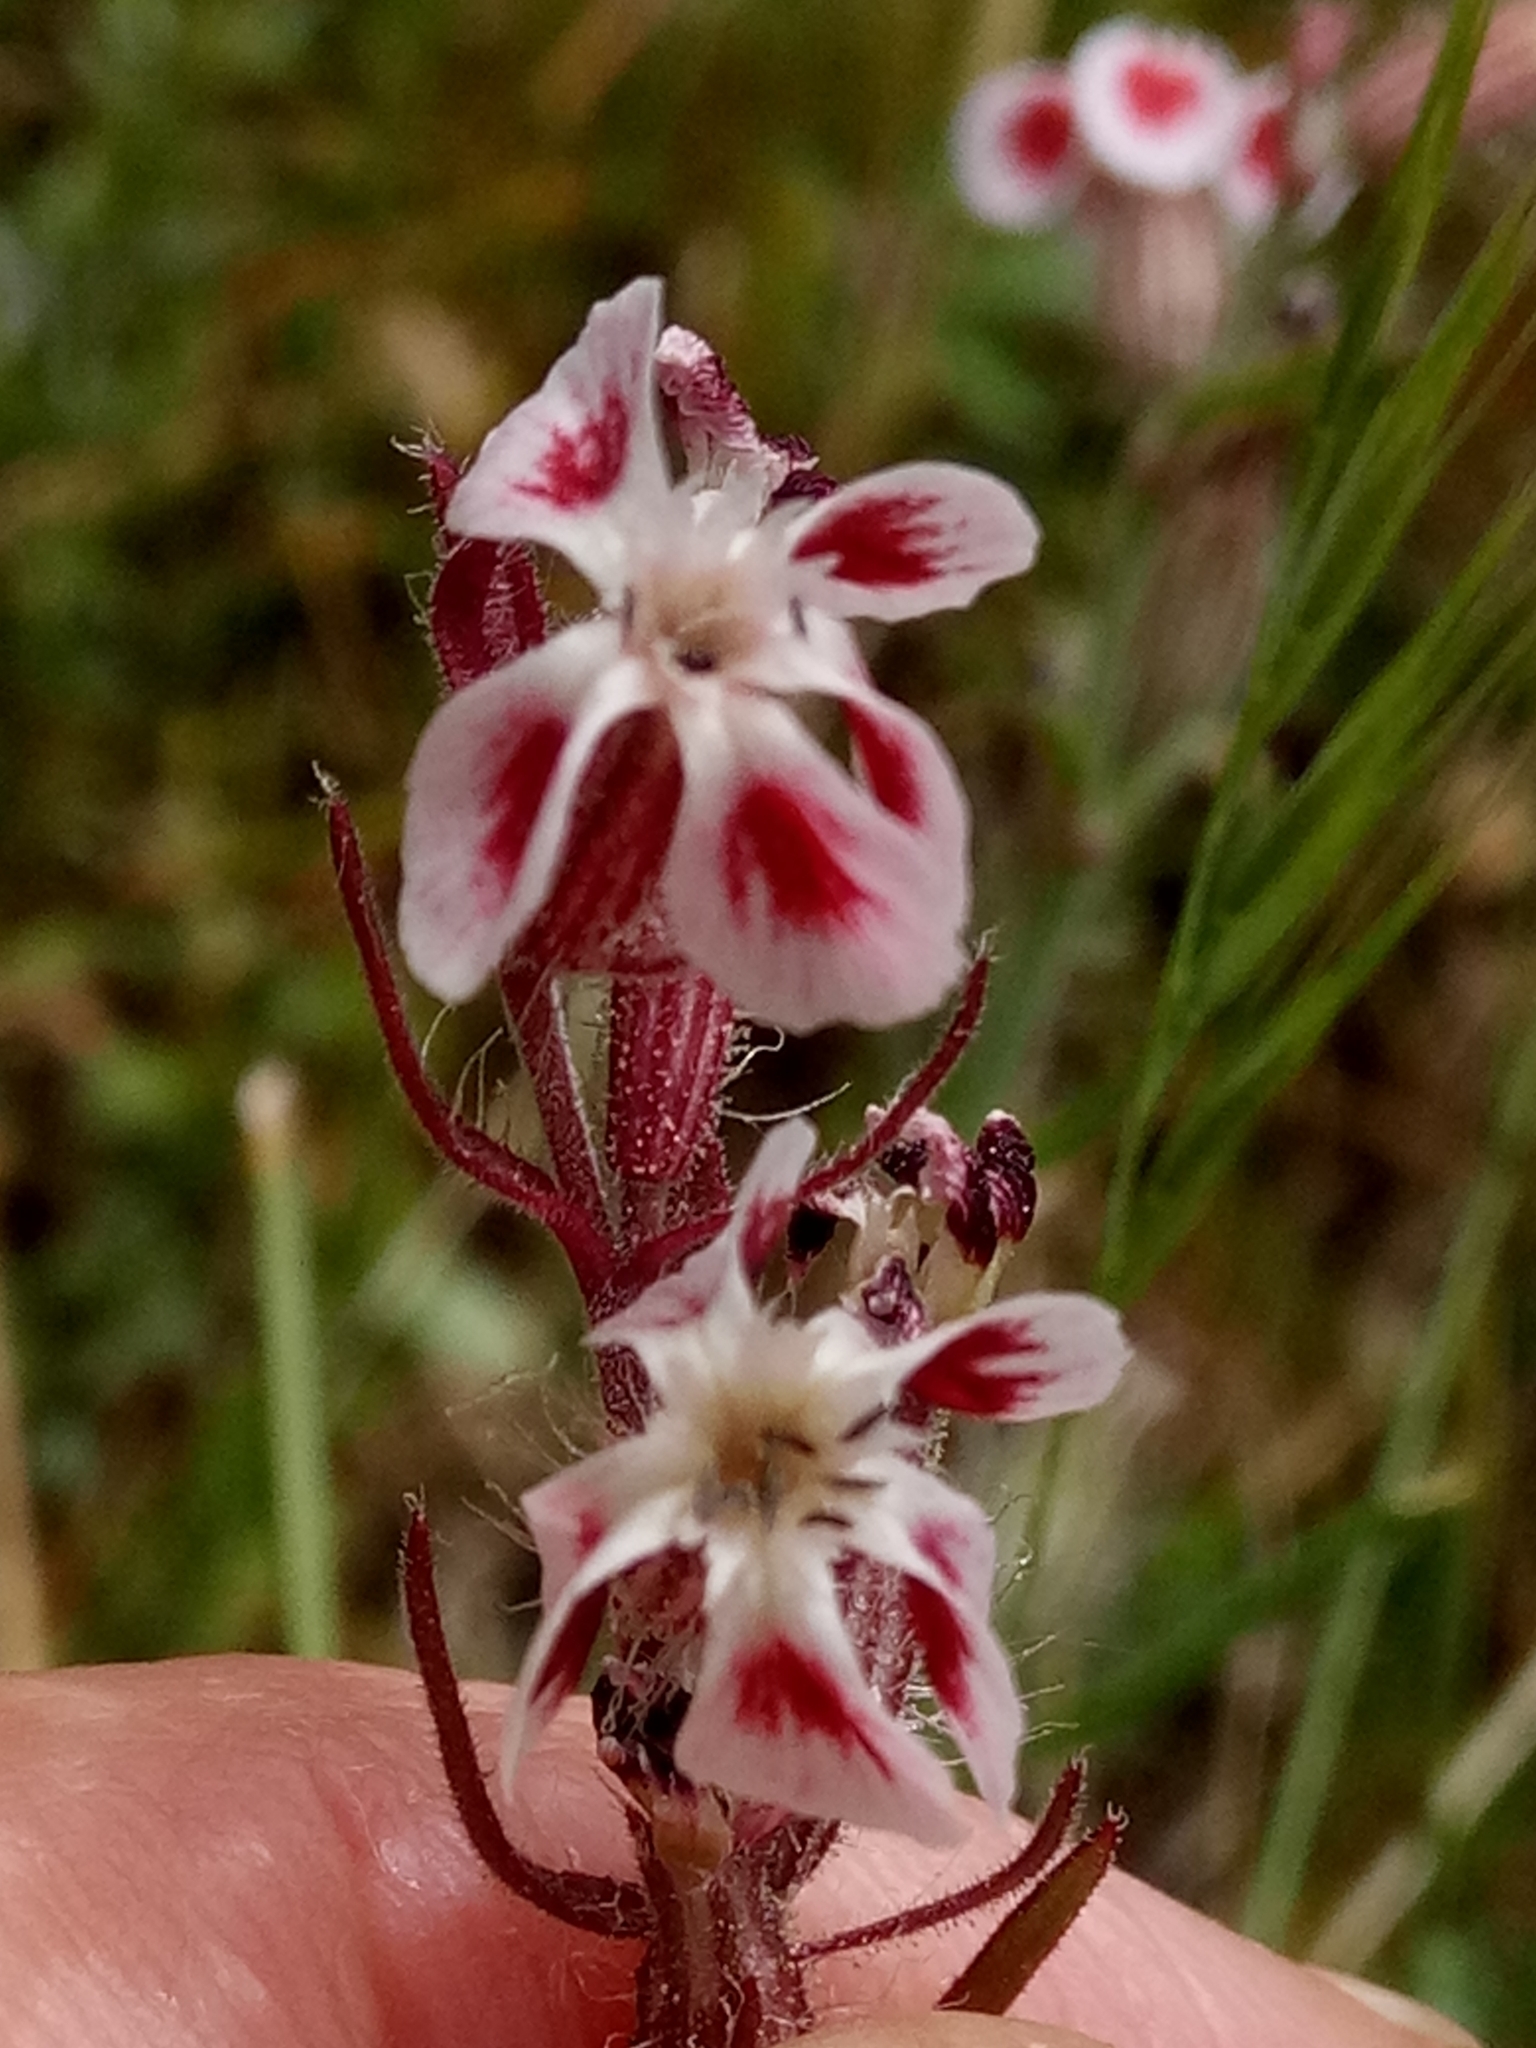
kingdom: Plantae
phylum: Tracheophyta
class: Magnoliopsida
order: Caryophyllales
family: Caryophyllaceae
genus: Silene
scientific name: Silene gallica
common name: Small-flowered catchfly
